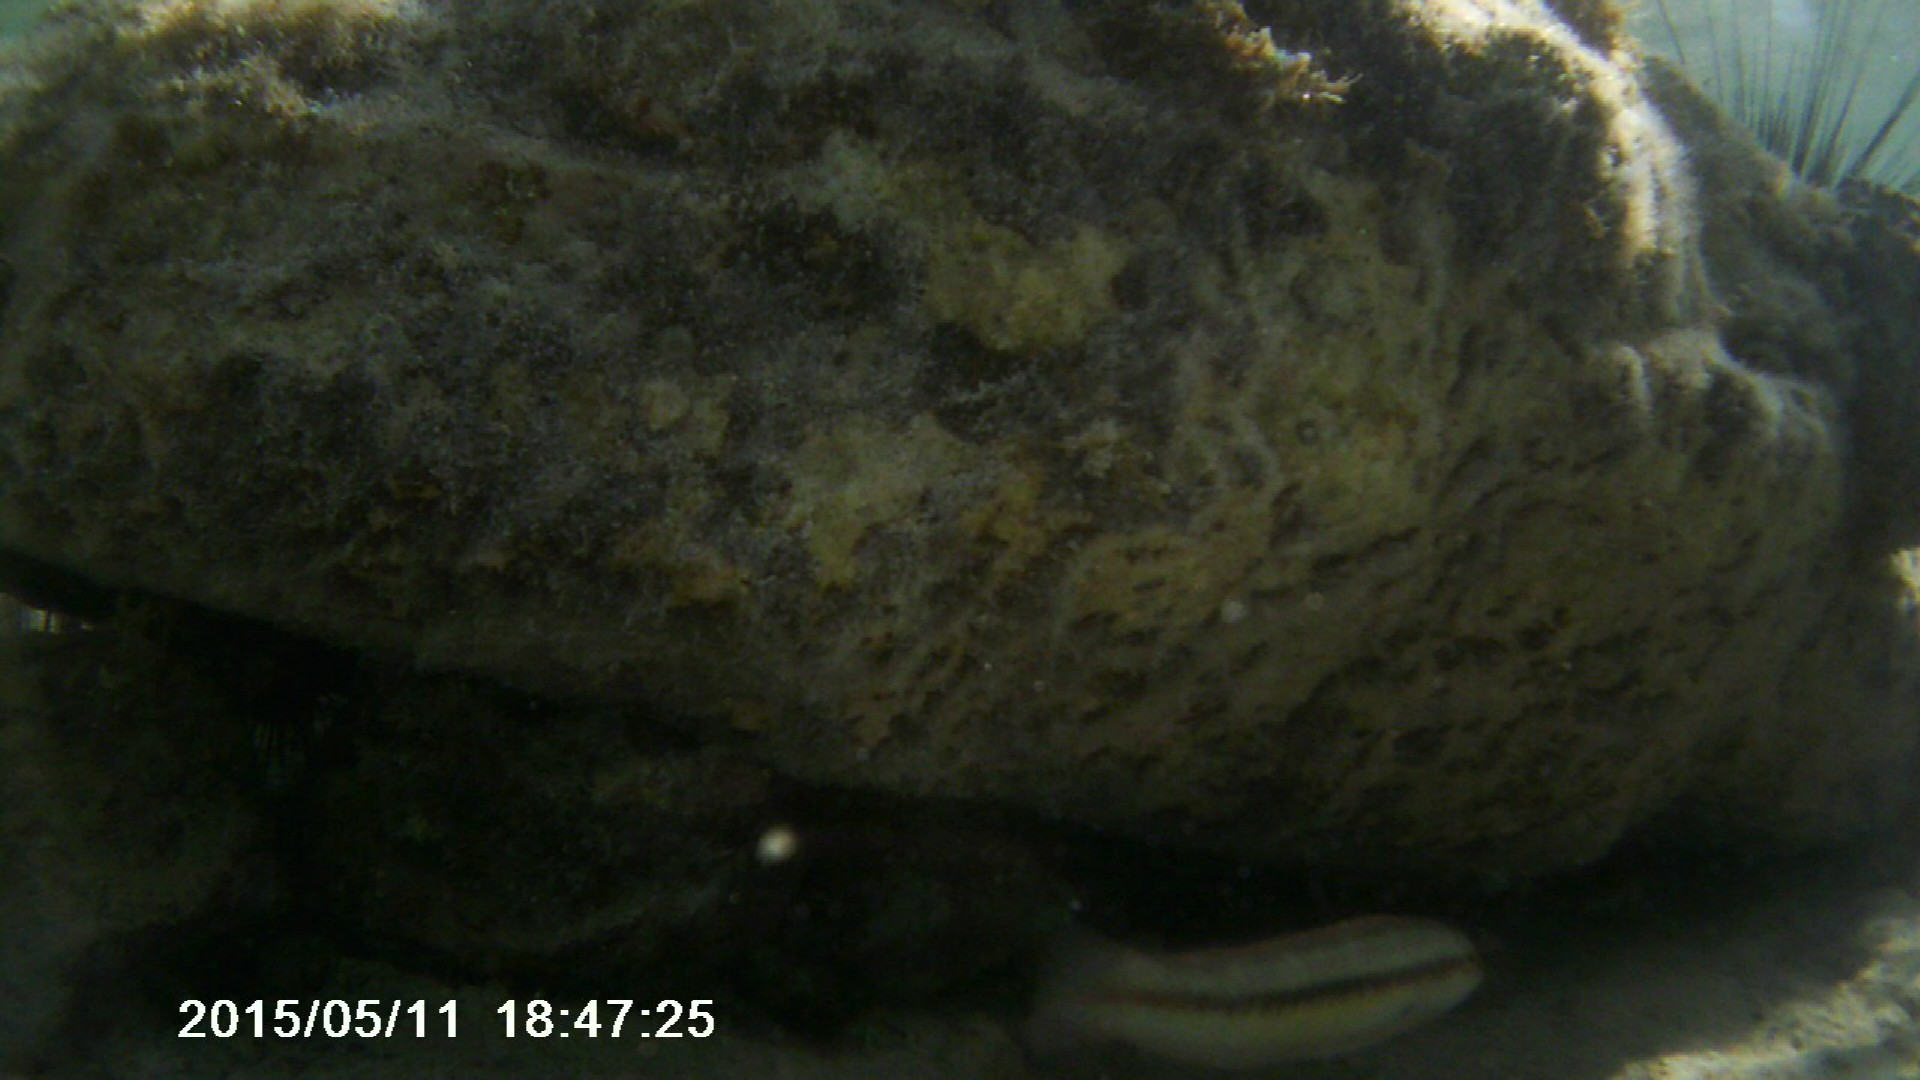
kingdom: Animalia
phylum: Chordata
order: Perciformes
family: Labridae
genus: Halichoeres
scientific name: Halichoeres bivittatus
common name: Slippery dick
